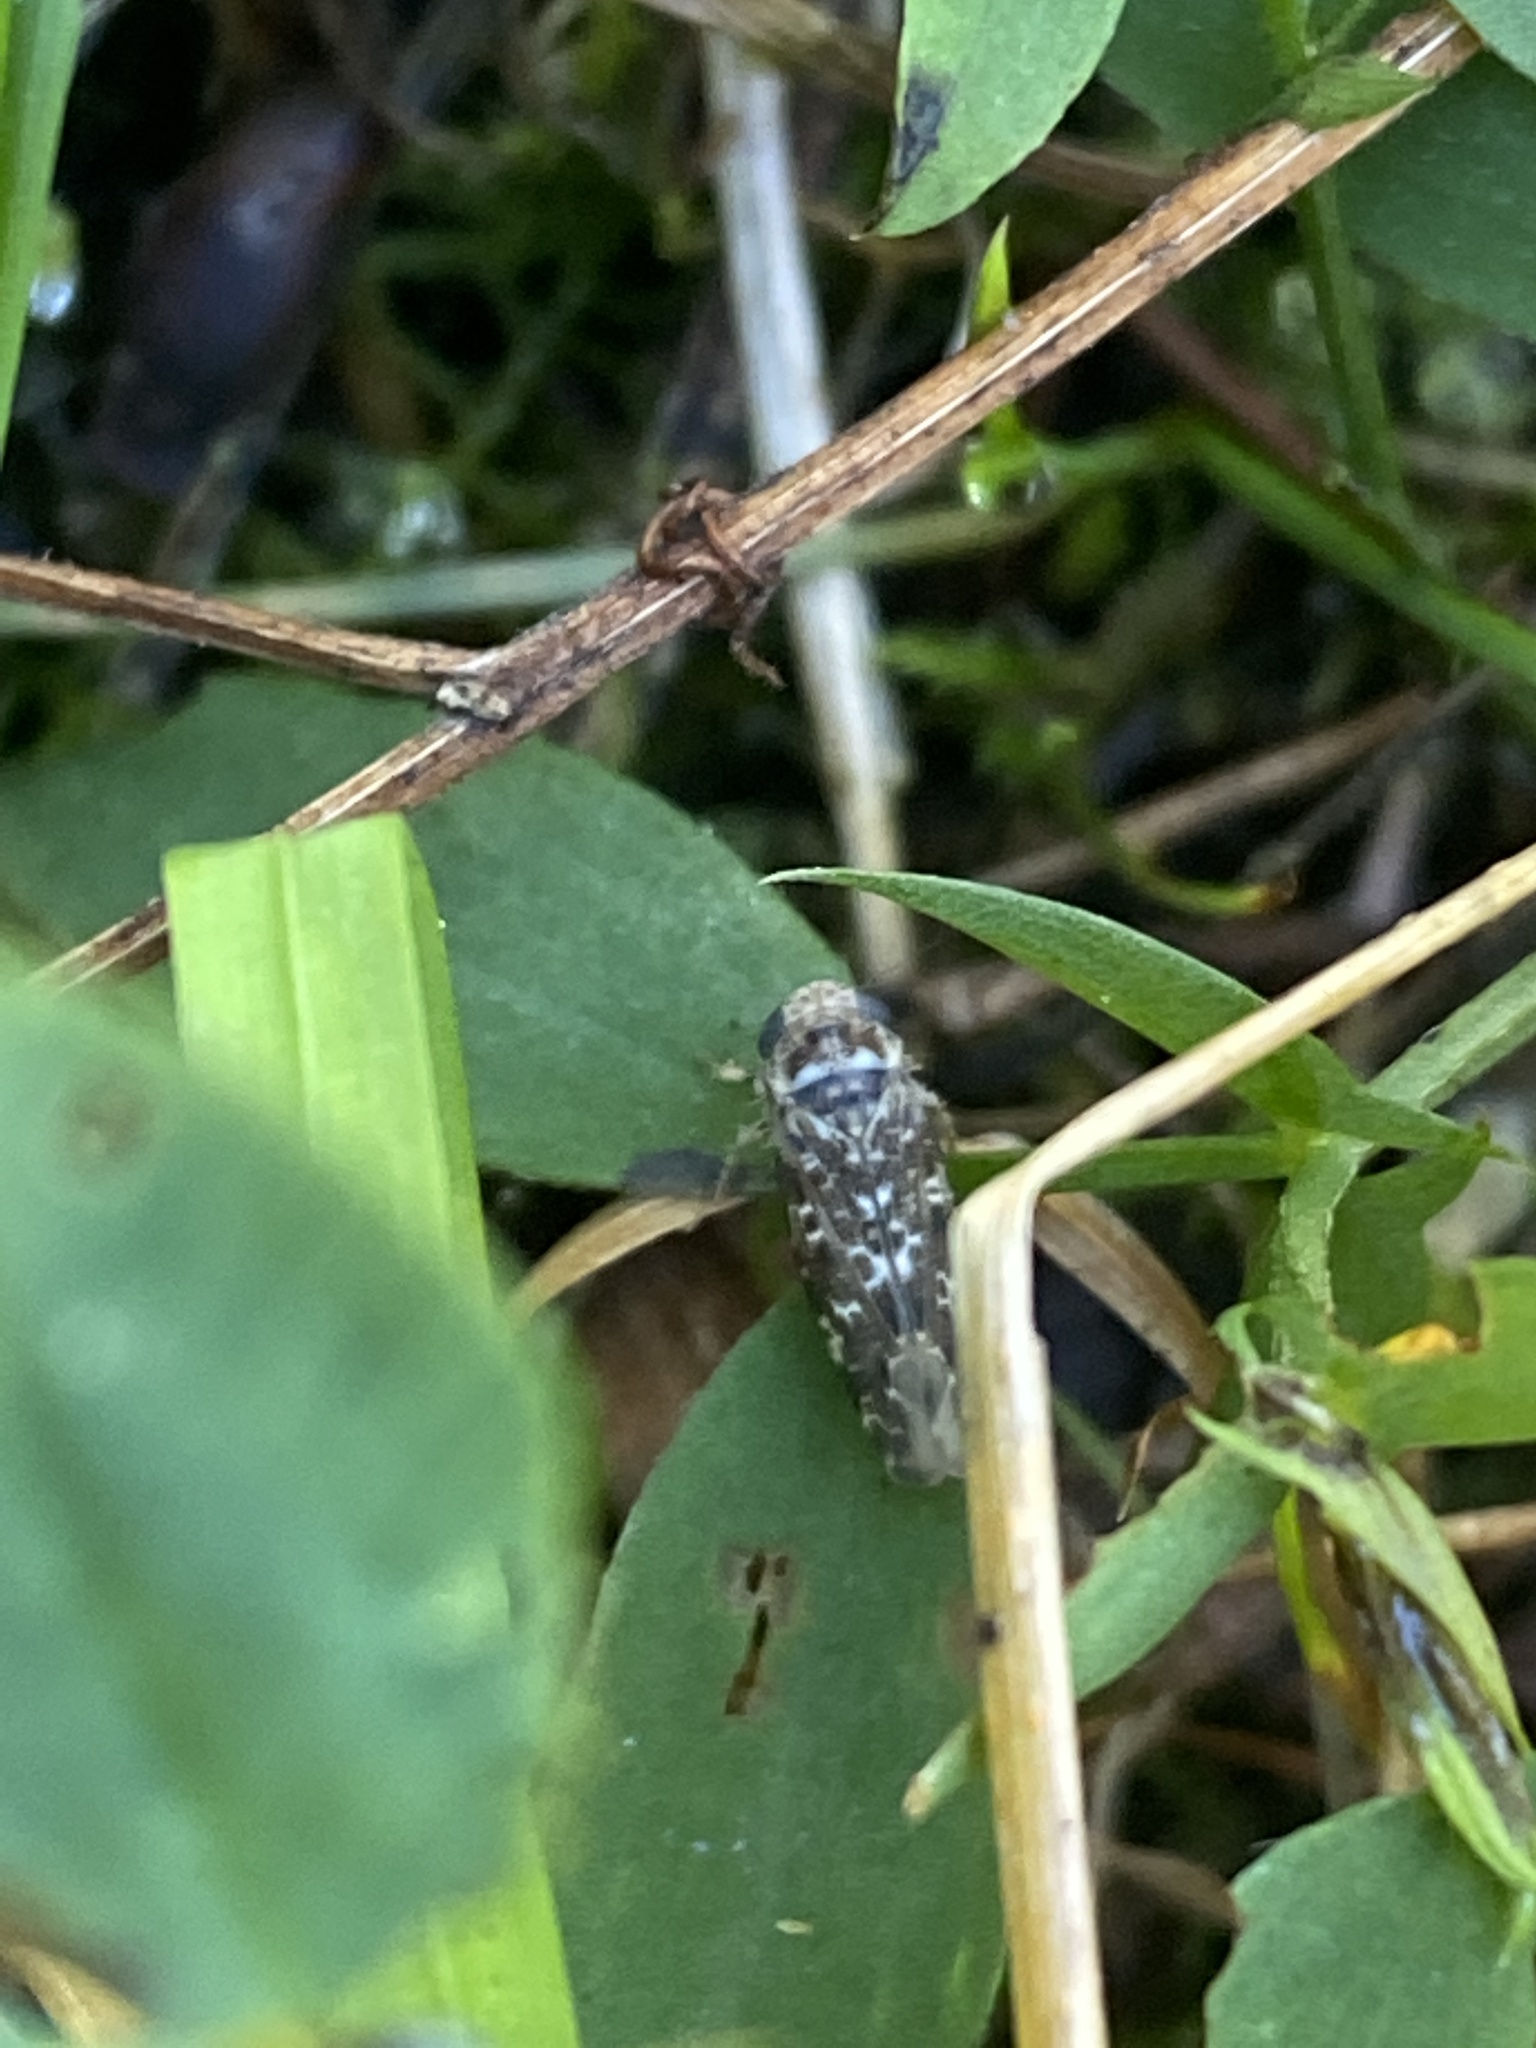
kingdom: Animalia
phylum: Arthropoda
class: Insecta
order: Hemiptera
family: Cicadellidae
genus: Allygus
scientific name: Allygus mixtus
